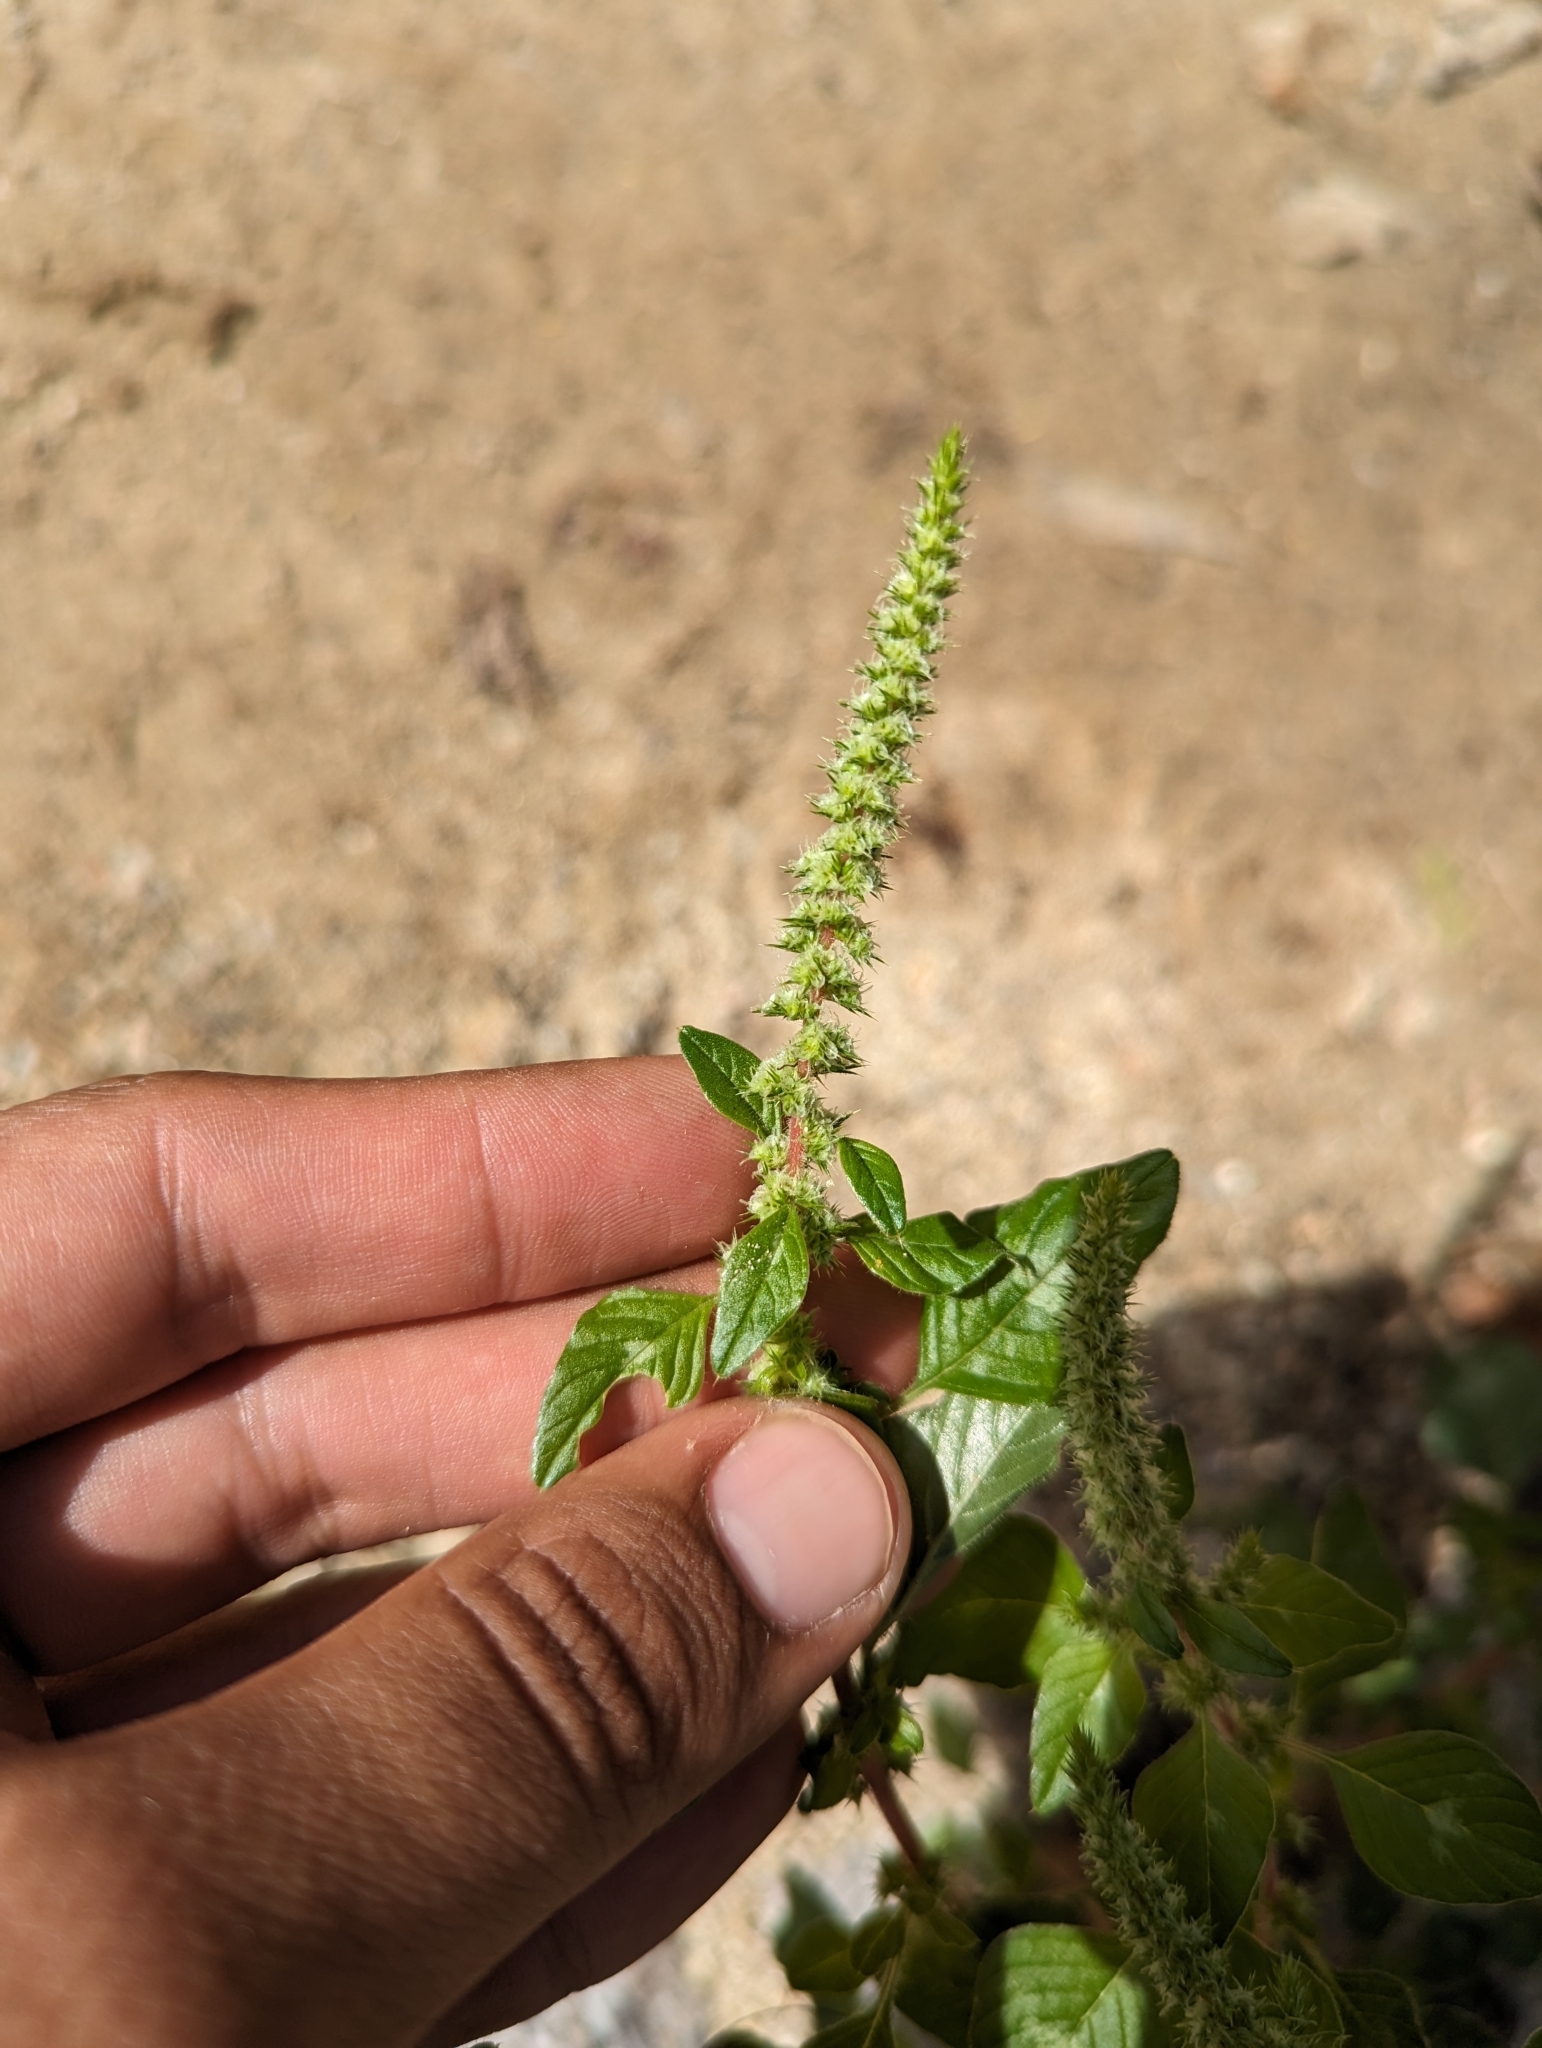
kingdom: Plantae
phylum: Tracheophyta
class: Magnoliopsida
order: Caryophyllales
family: Amaranthaceae
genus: Amaranthus
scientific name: Amaranthus watsonii
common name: Watson's amaranth
